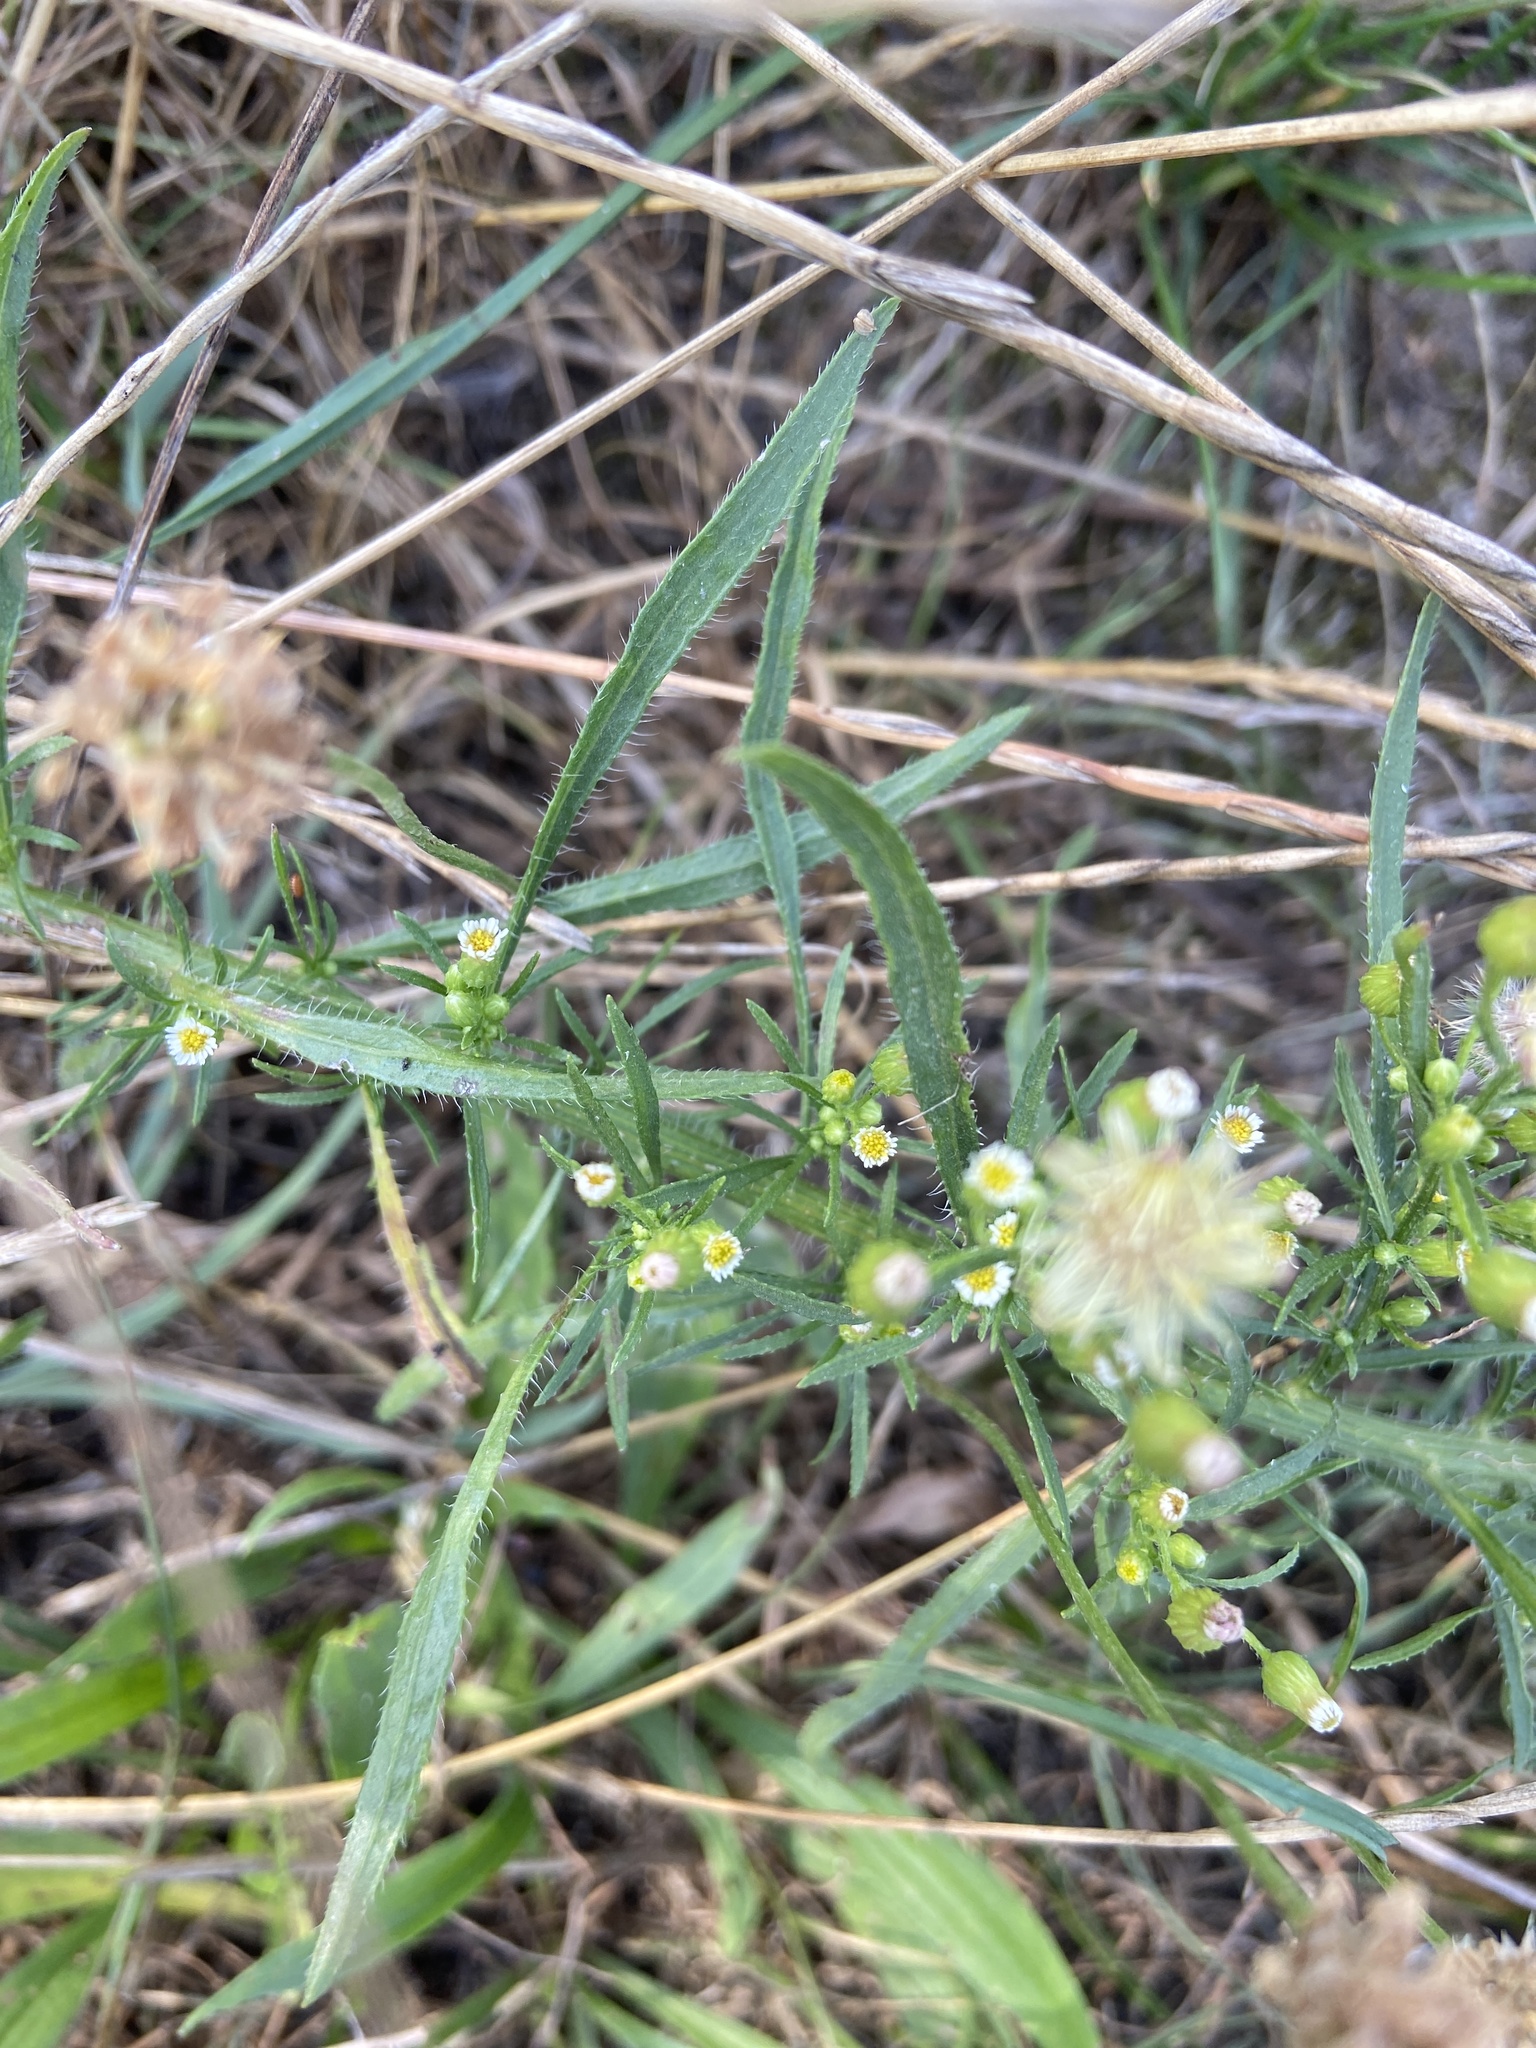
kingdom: Plantae
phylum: Tracheophyta
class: Magnoliopsida
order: Asterales
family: Asteraceae
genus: Erigeron
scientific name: Erigeron canadensis
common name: Canadian fleabane
